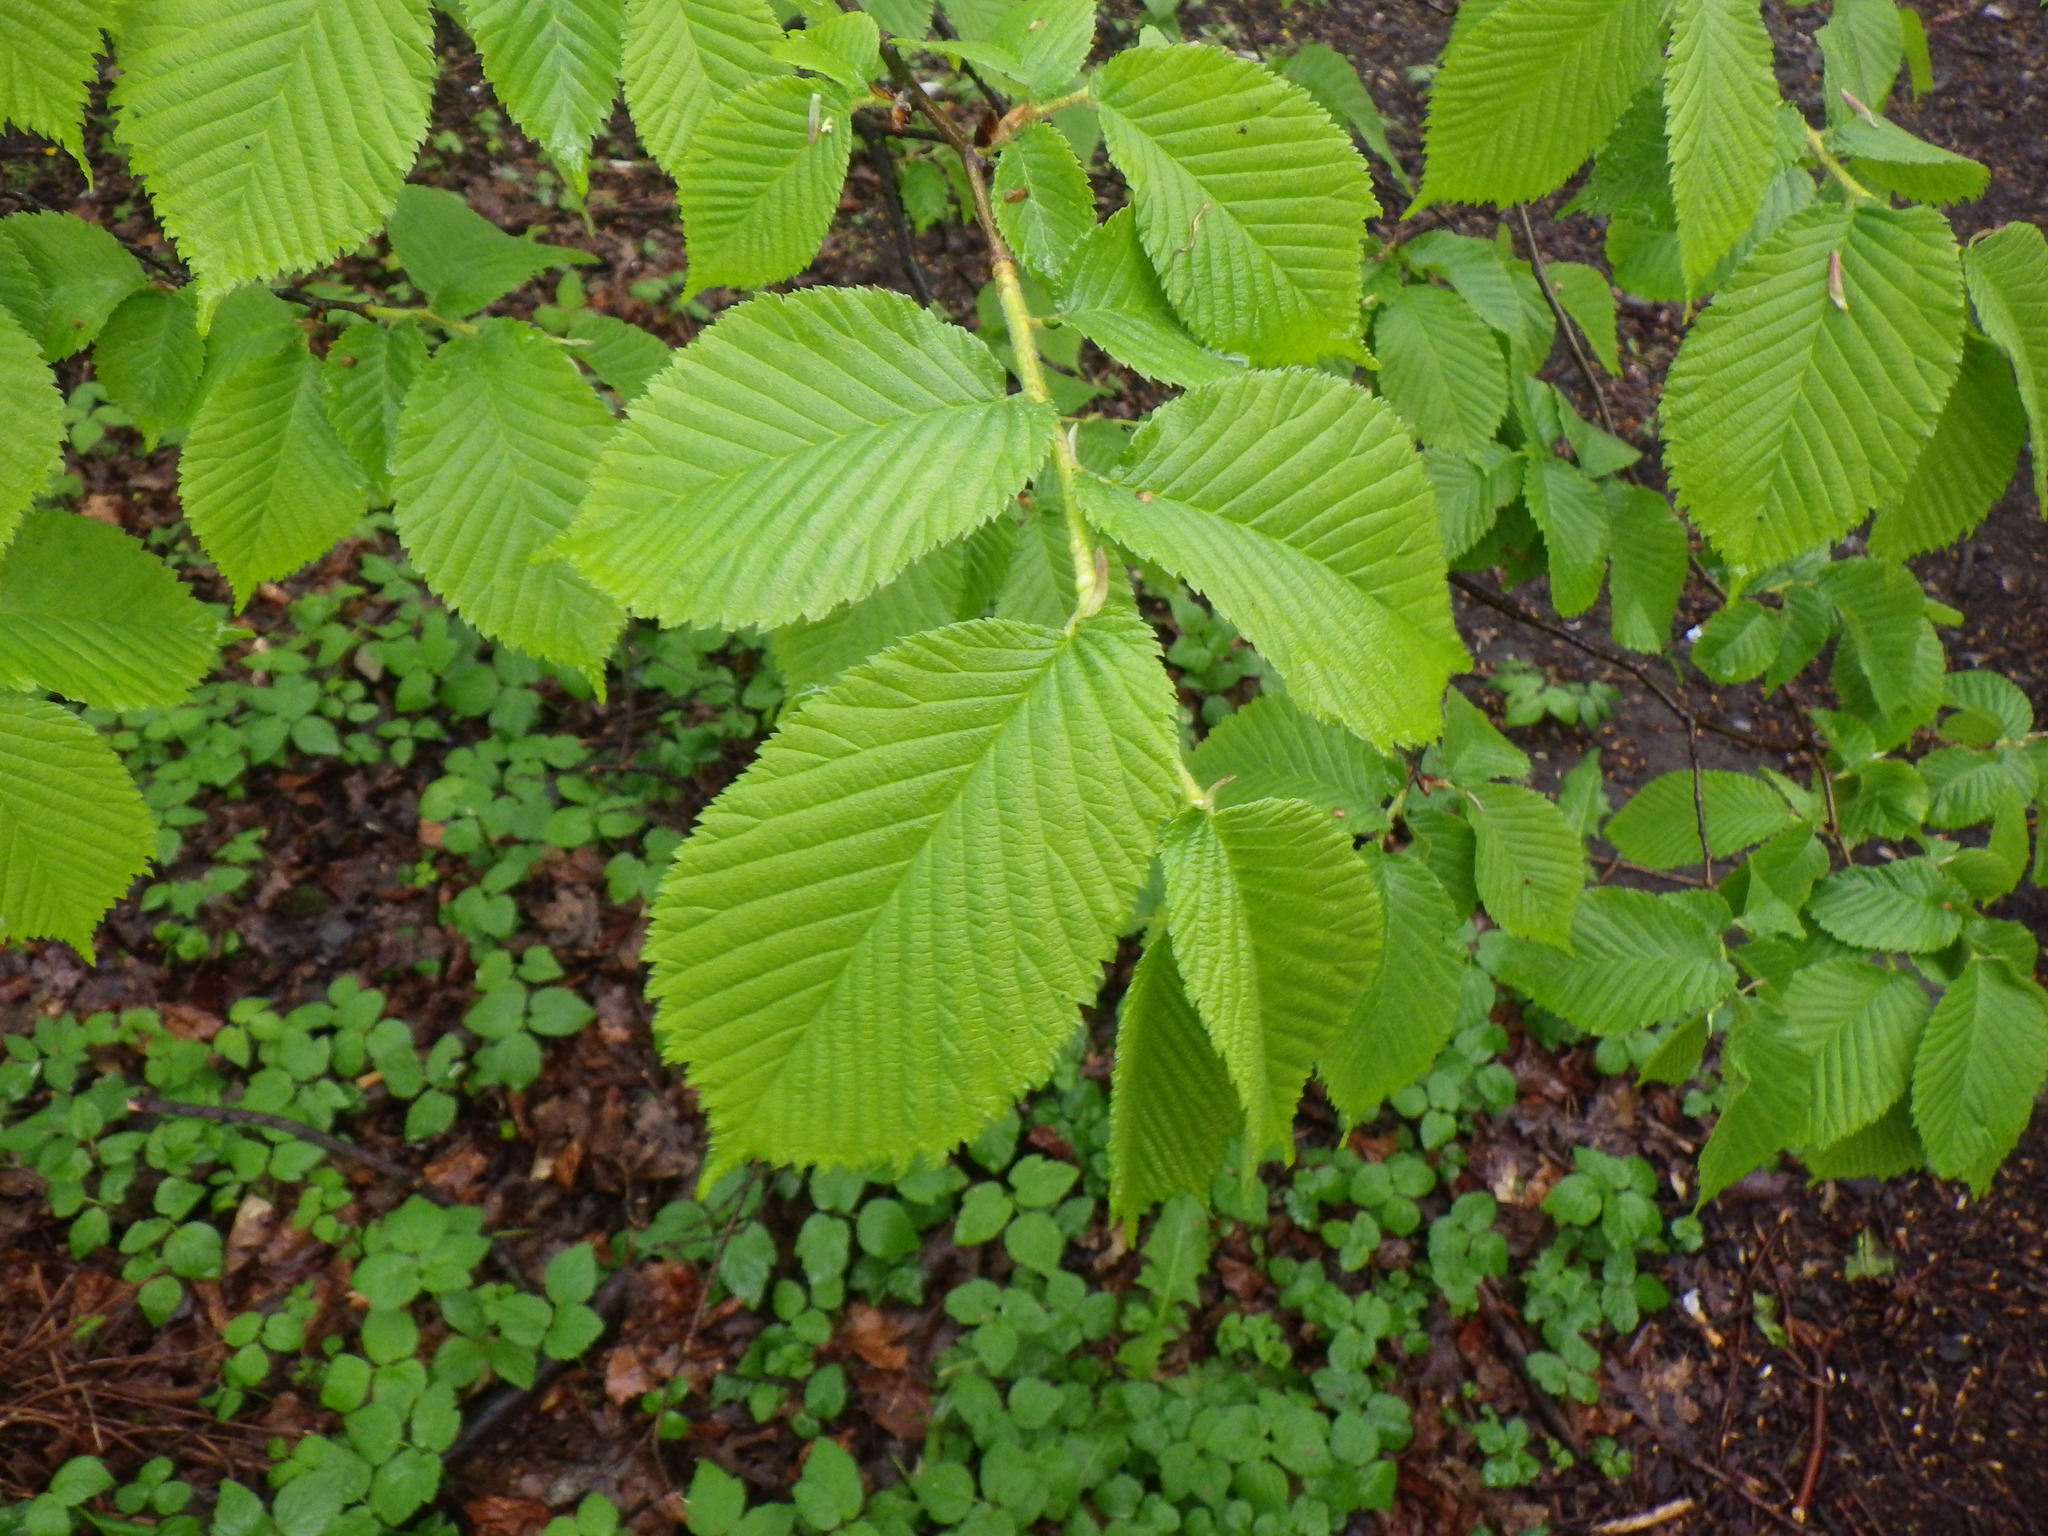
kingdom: Plantae
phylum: Tracheophyta
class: Magnoliopsida
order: Rosales
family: Ulmaceae
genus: Ulmus
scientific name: Ulmus glabra
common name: Wych elm
